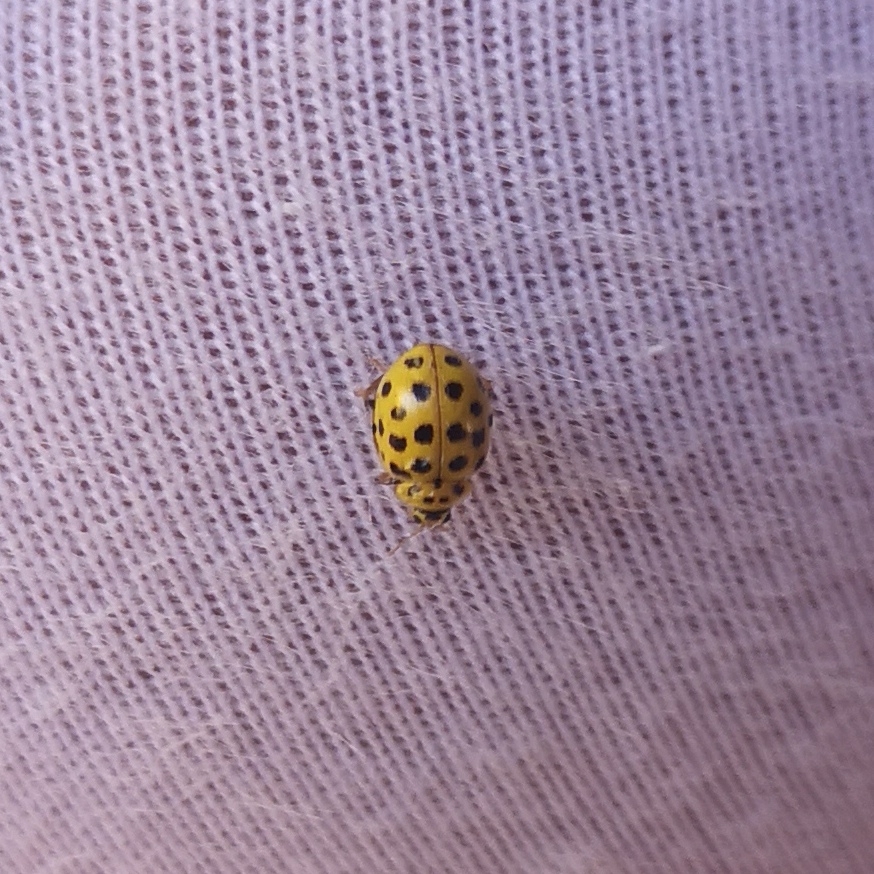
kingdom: Animalia
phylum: Arthropoda
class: Insecta
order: Coleoptera
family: Coccinellidae
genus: Psyllobora
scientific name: Psyllobora vigintiduopunctata
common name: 22-spot ladybird
